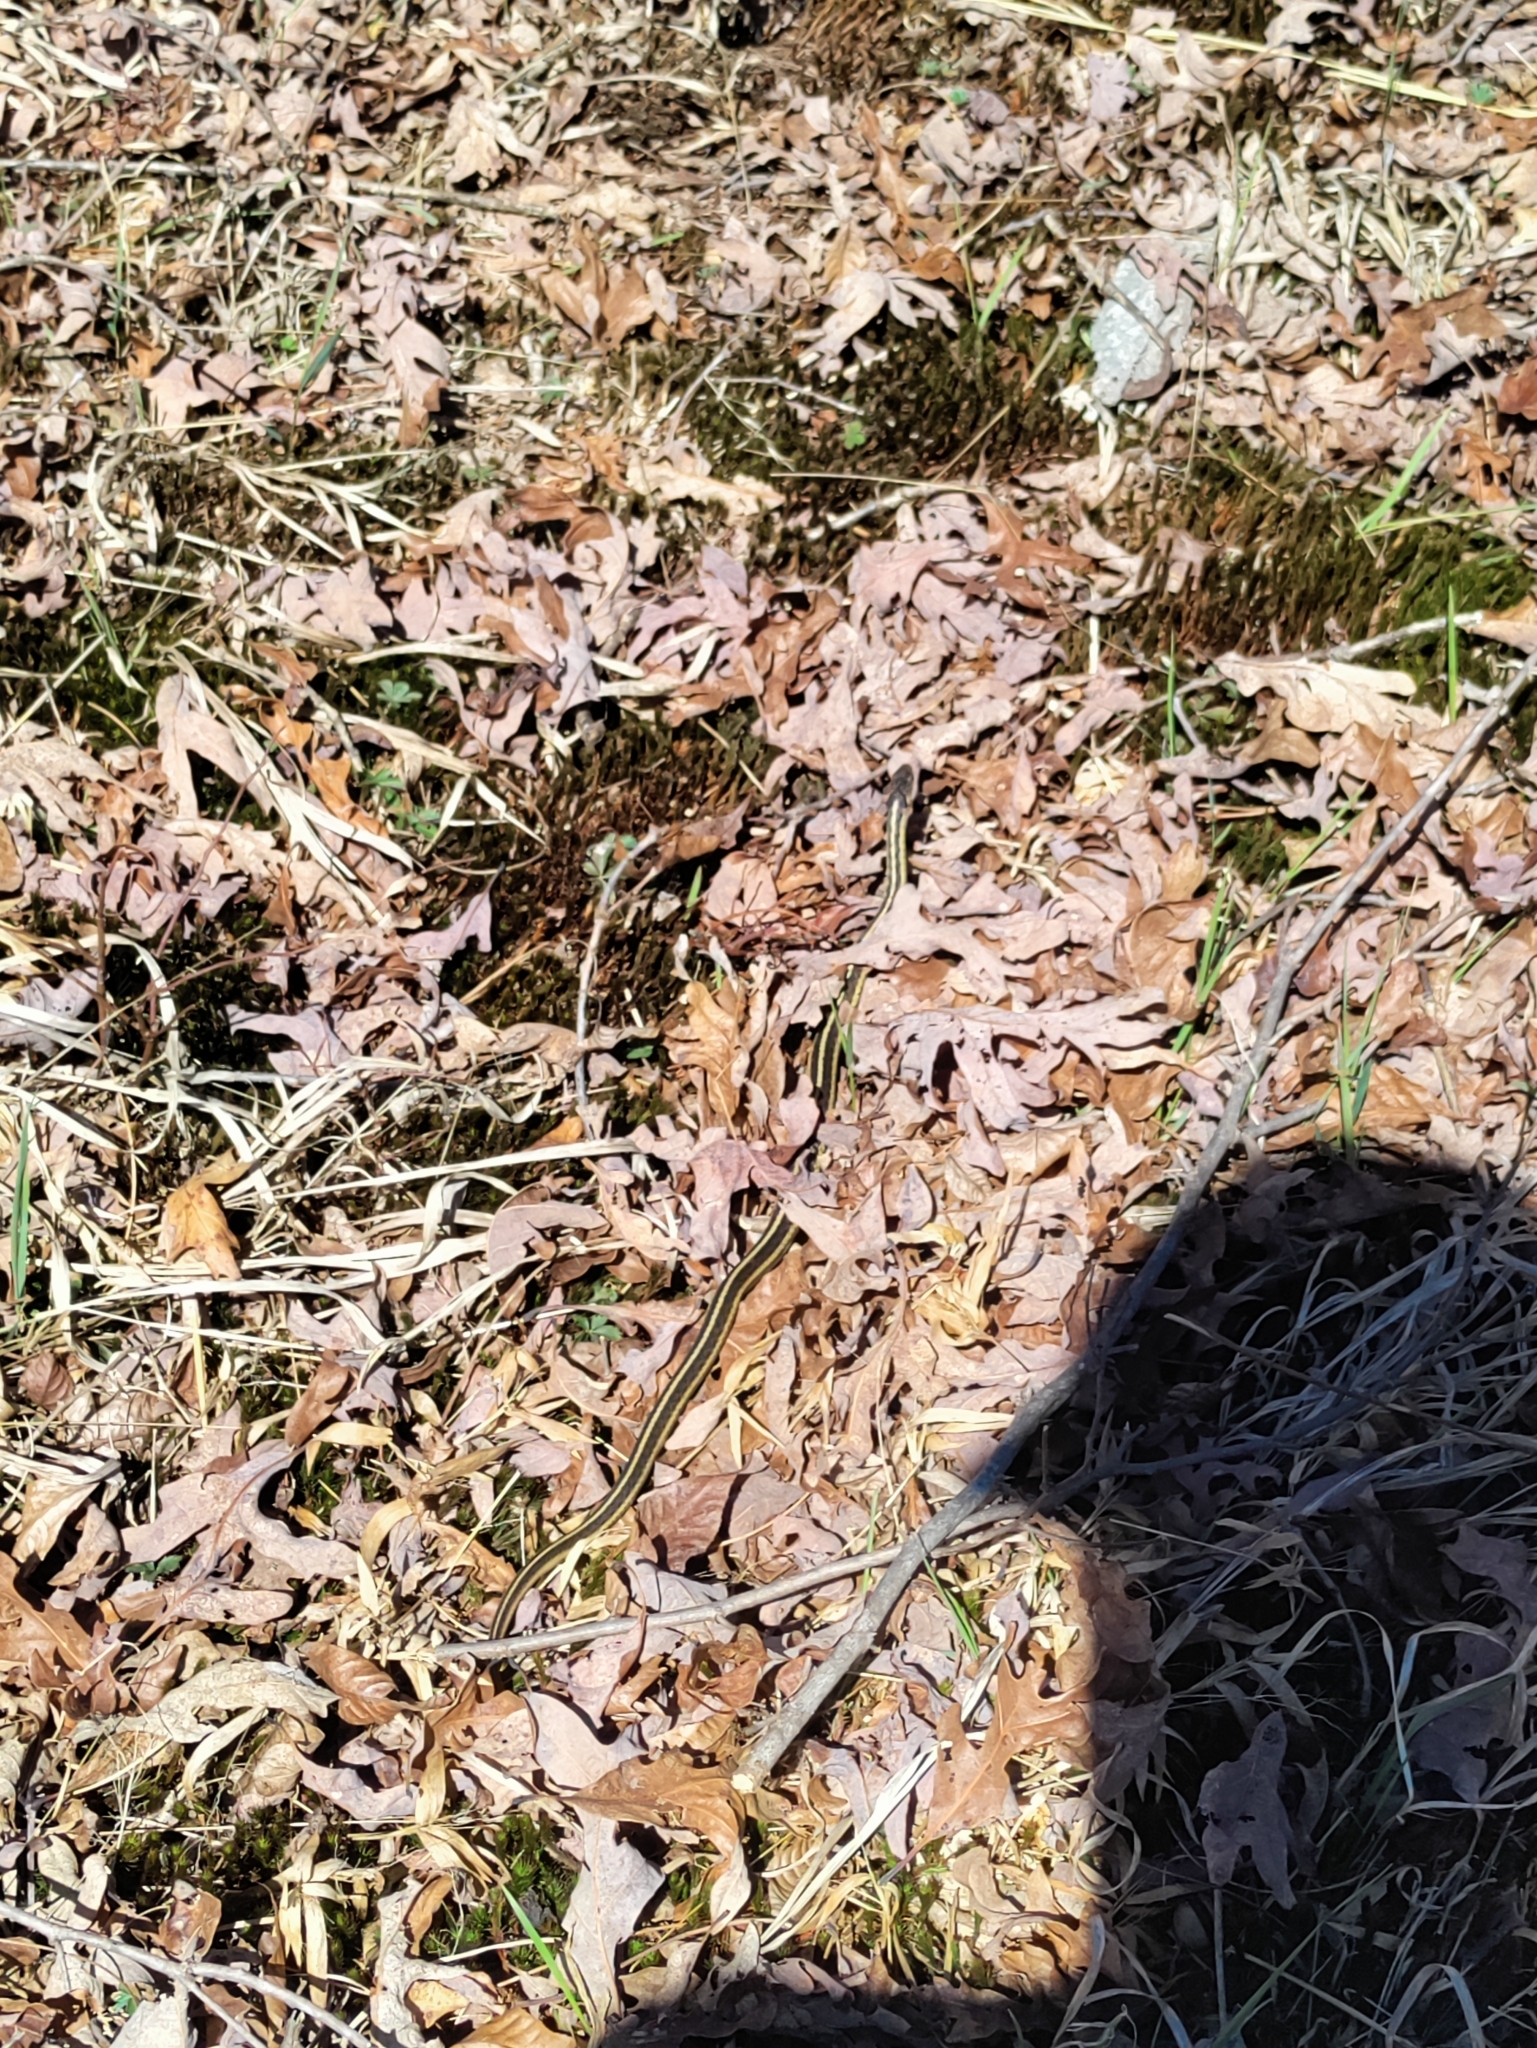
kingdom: Animalia
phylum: Chordata
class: Squamata
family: Colubridae
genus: Thamnophis
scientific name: Thamnophis sirtalis
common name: Common garter snake
